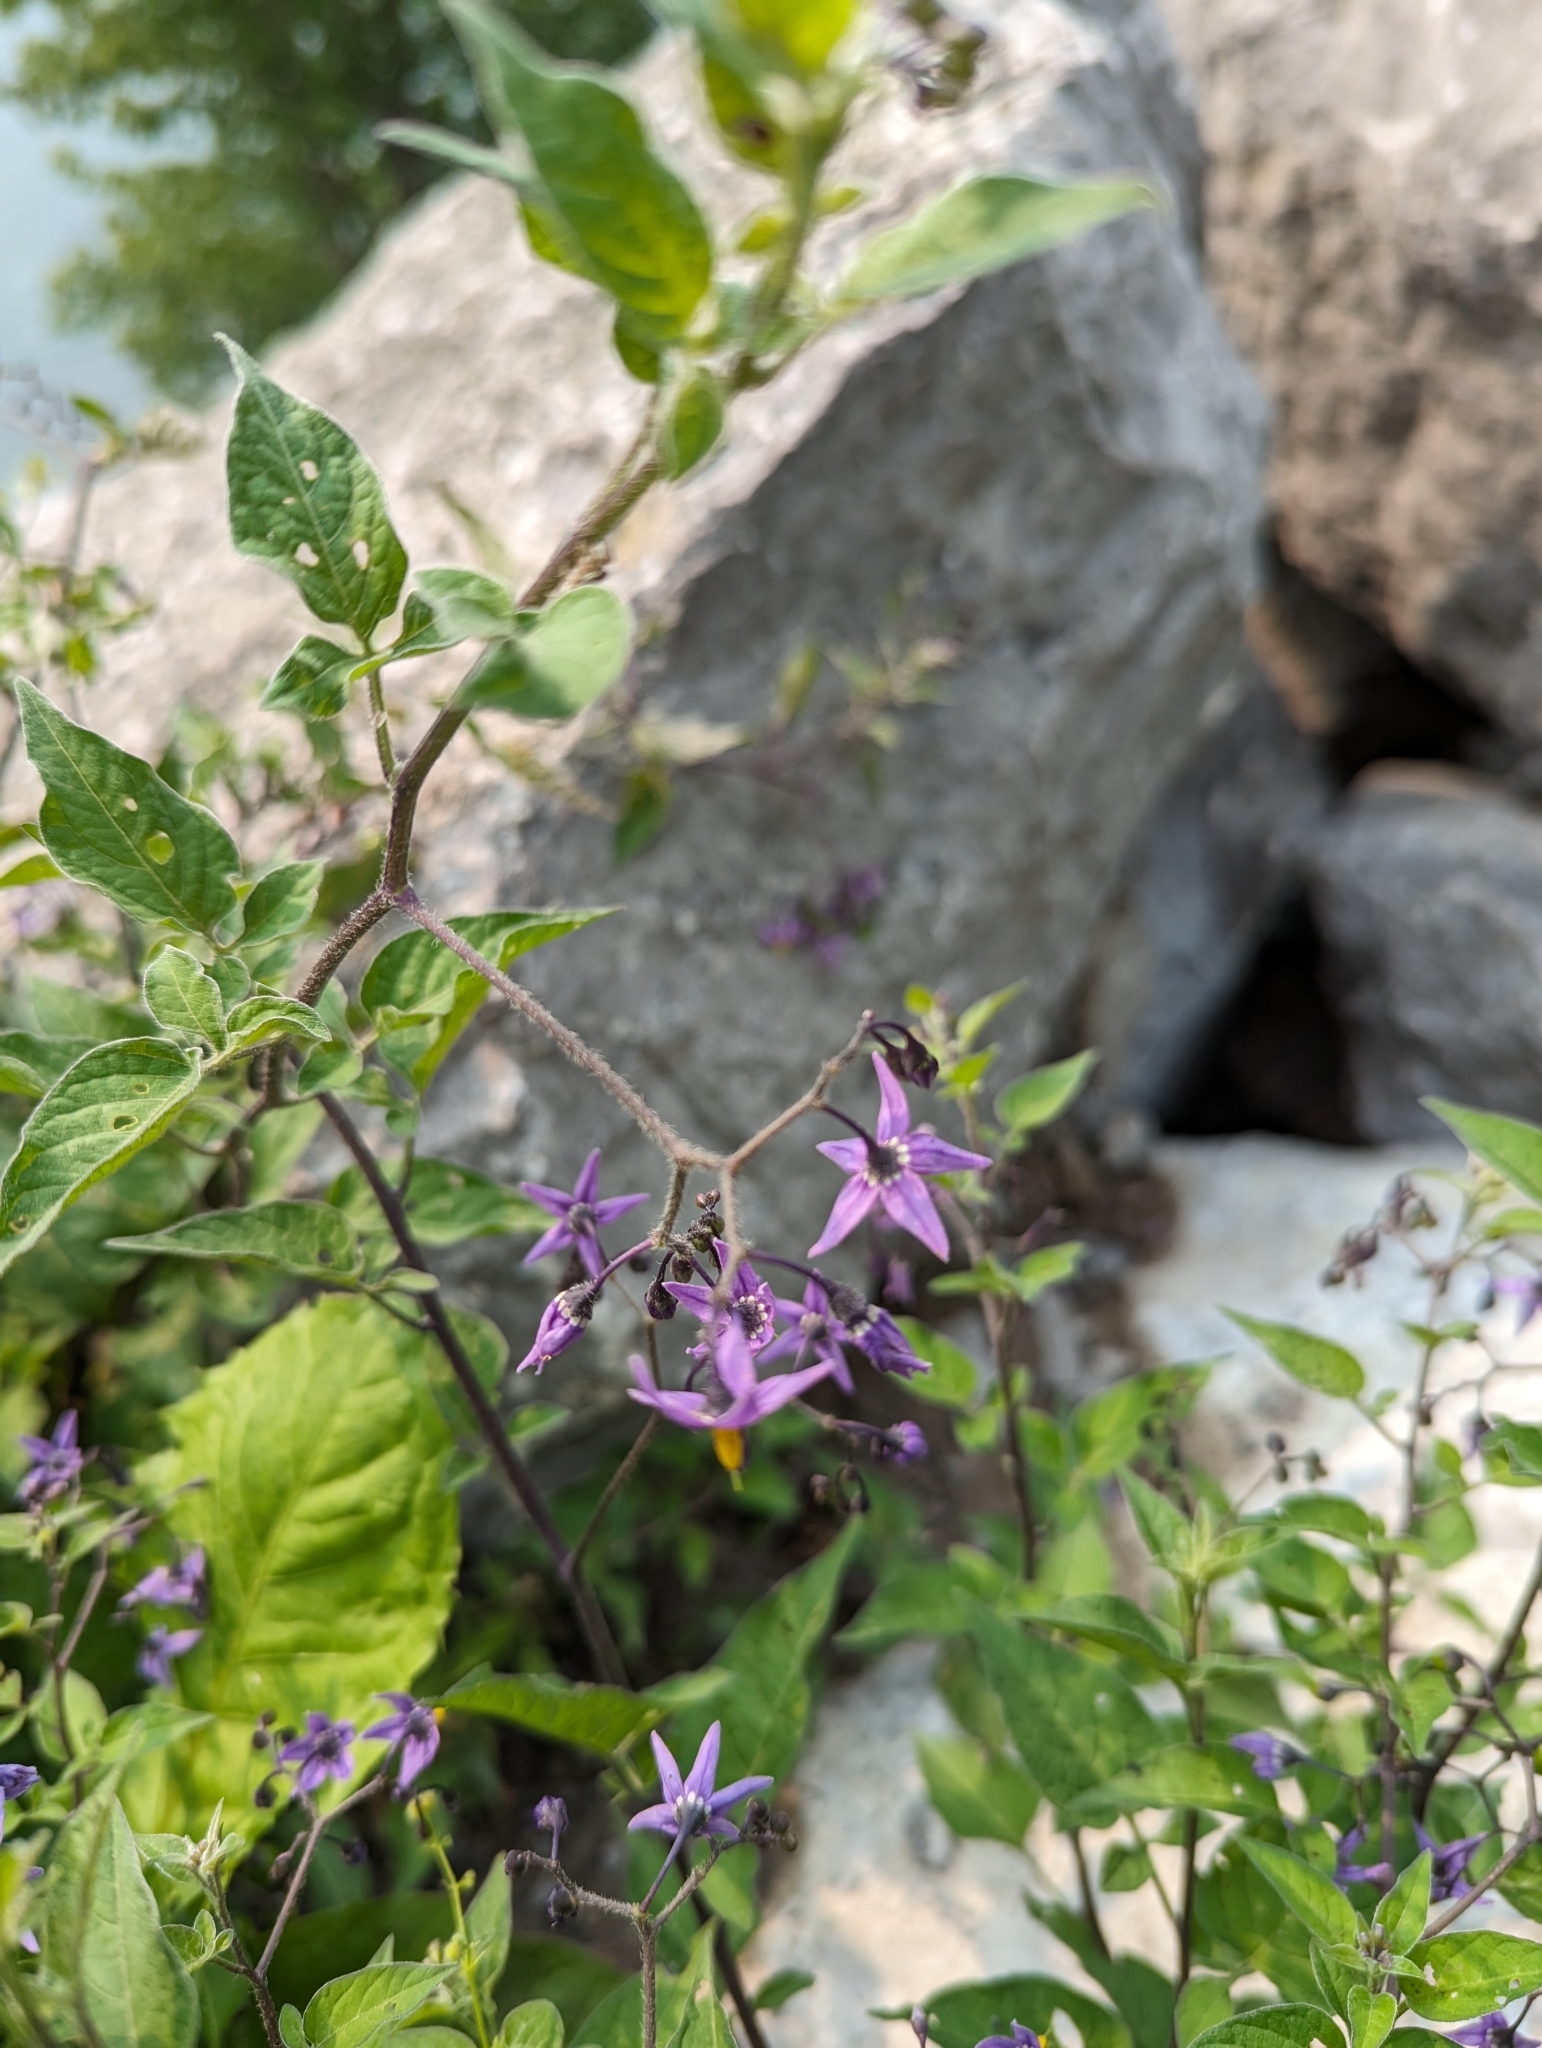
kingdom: Plantae
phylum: Tracheophyta
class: Magnoliopsida
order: Solanales
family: Solanaceae
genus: Solanum
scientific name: Solanum dulcamara
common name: Climbing nightshade
